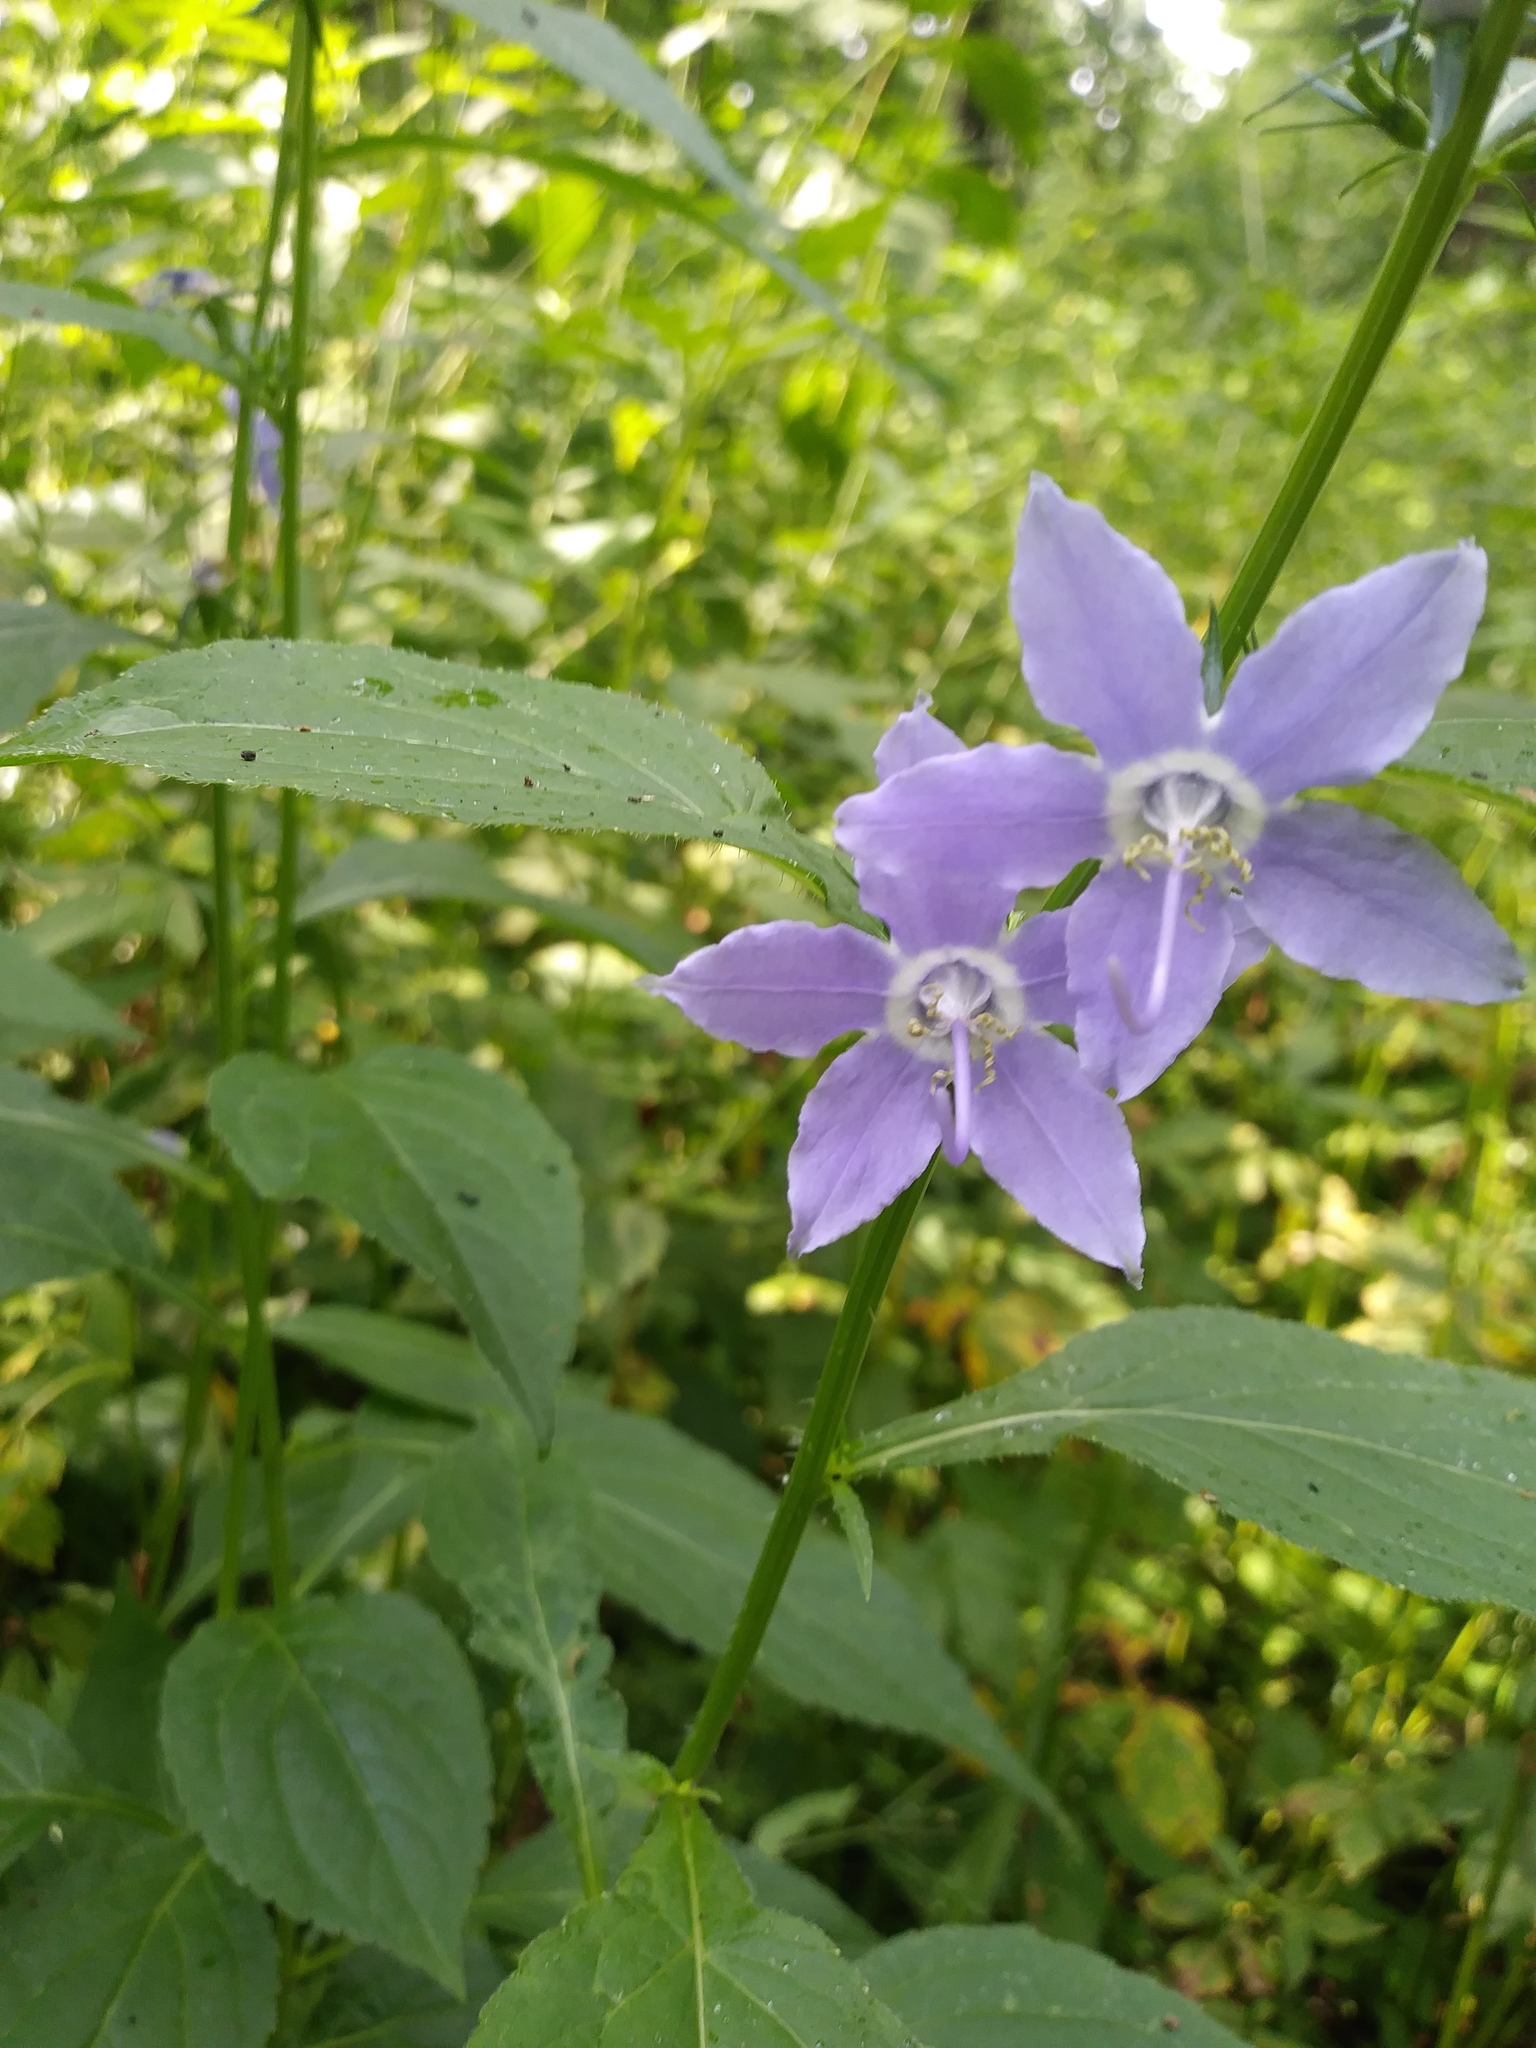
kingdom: Plantae
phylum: Tracheophyta
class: Magnoliopsida
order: Asterales
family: Campanulaceae
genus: Campanulastrum
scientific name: Campanulastrum americanum
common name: American bellflower
